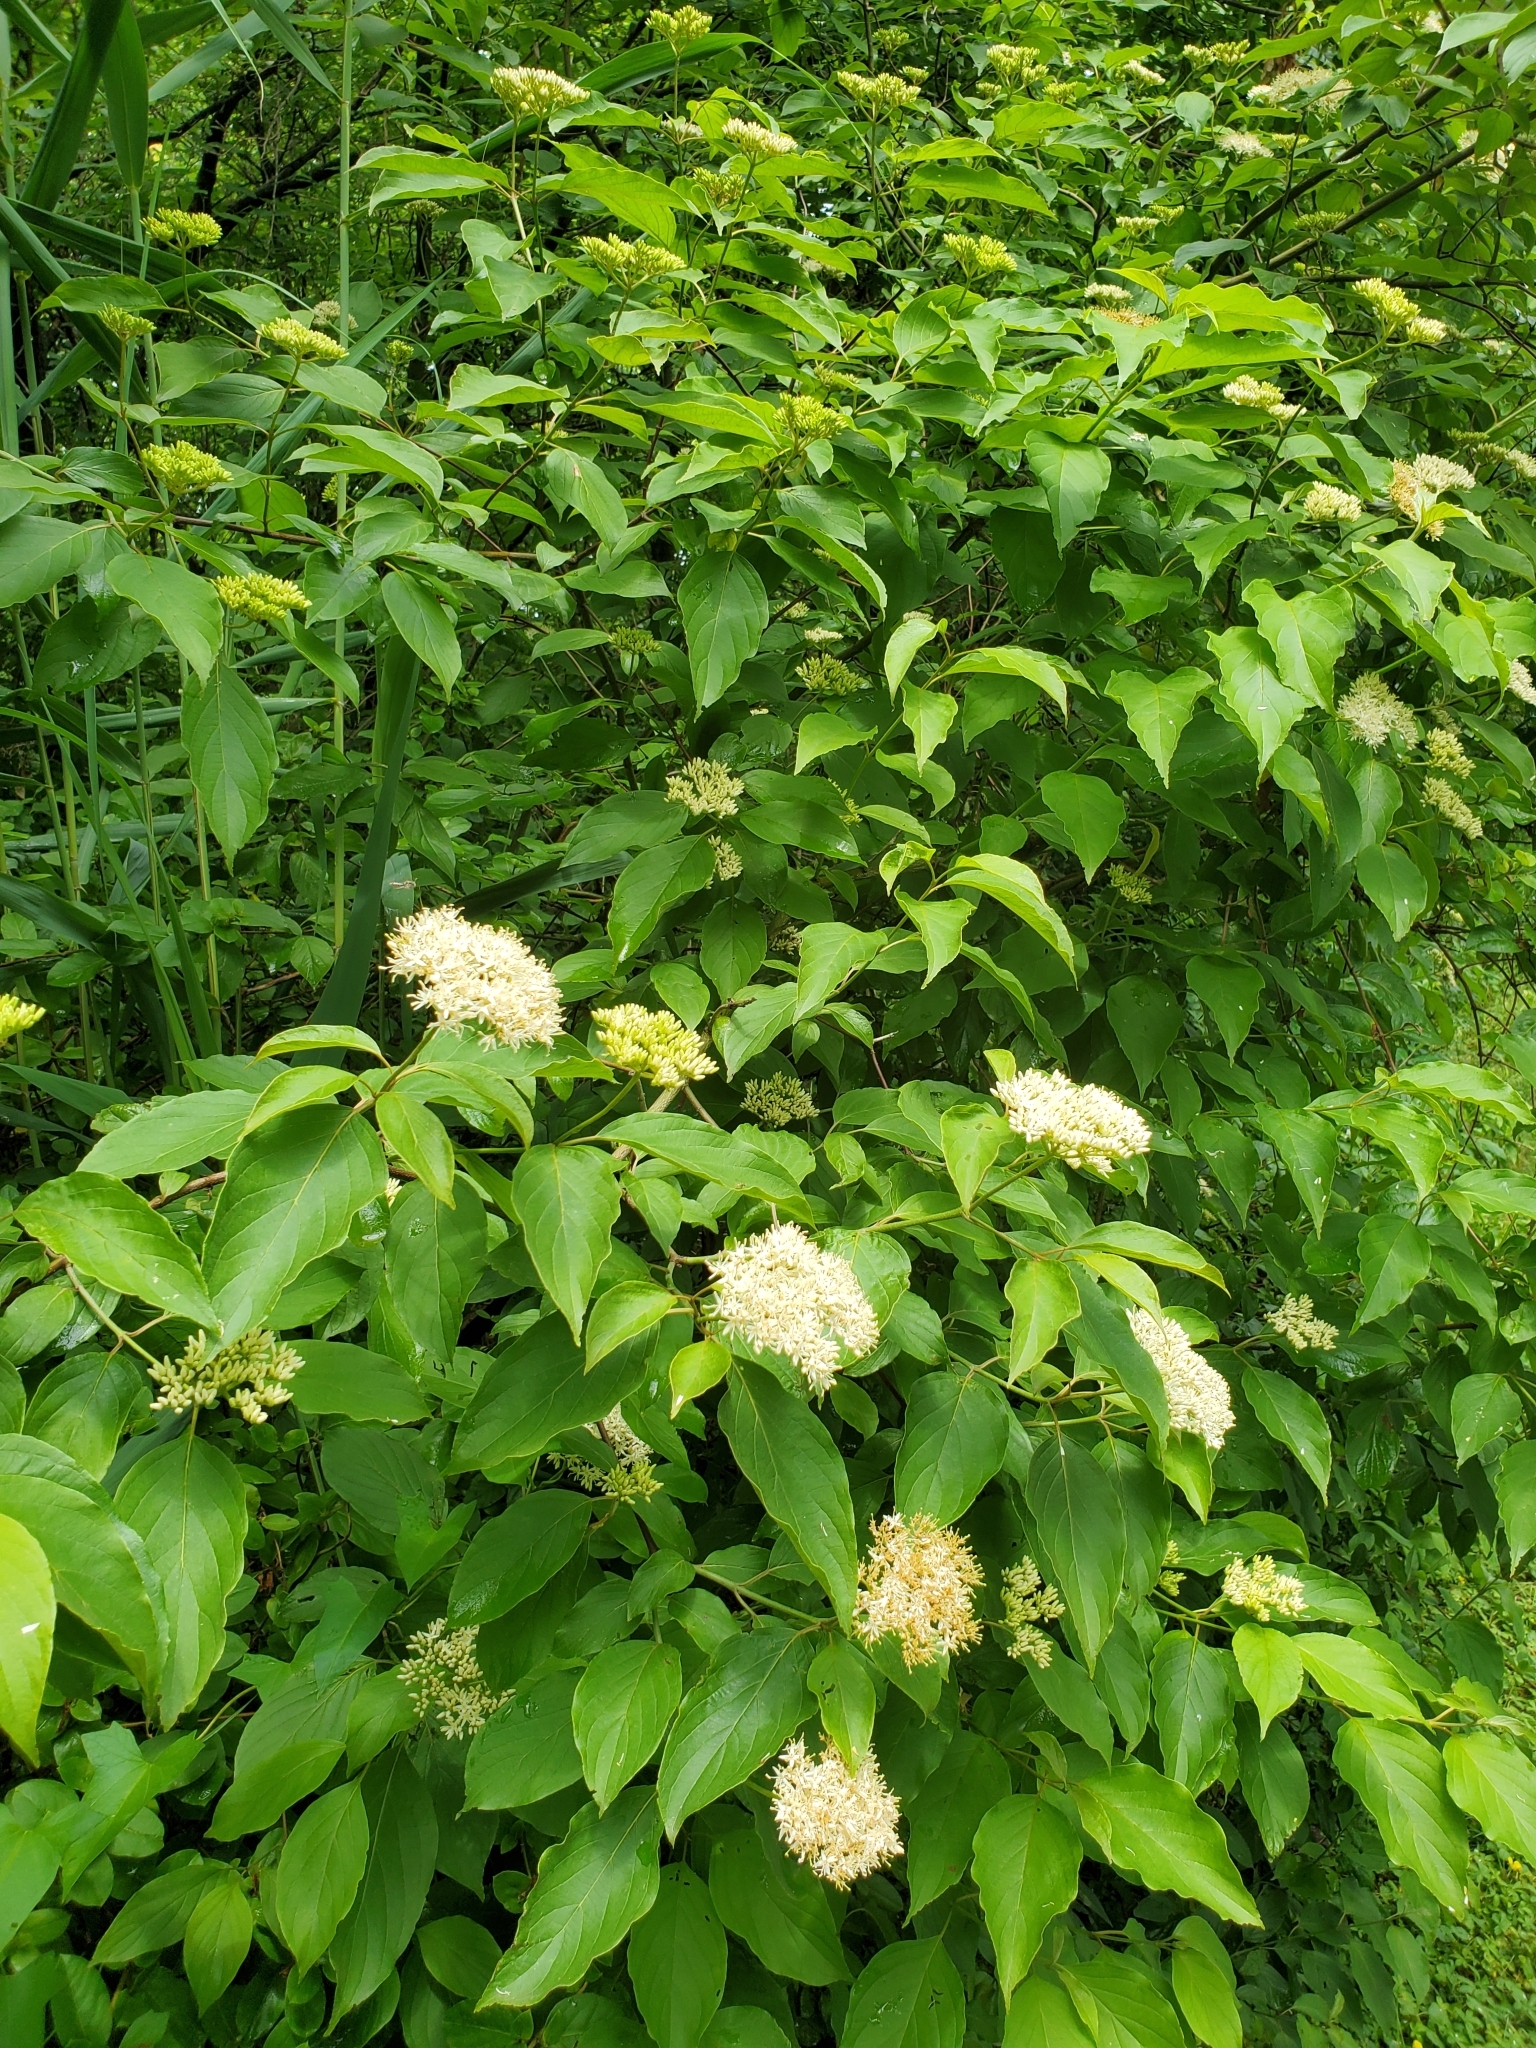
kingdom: Plantae
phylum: Tracheophyta
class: Magnoliopsida
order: Cornales
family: Cornaceae
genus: Cornus
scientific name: Cornus amomum
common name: Silky dogwood
